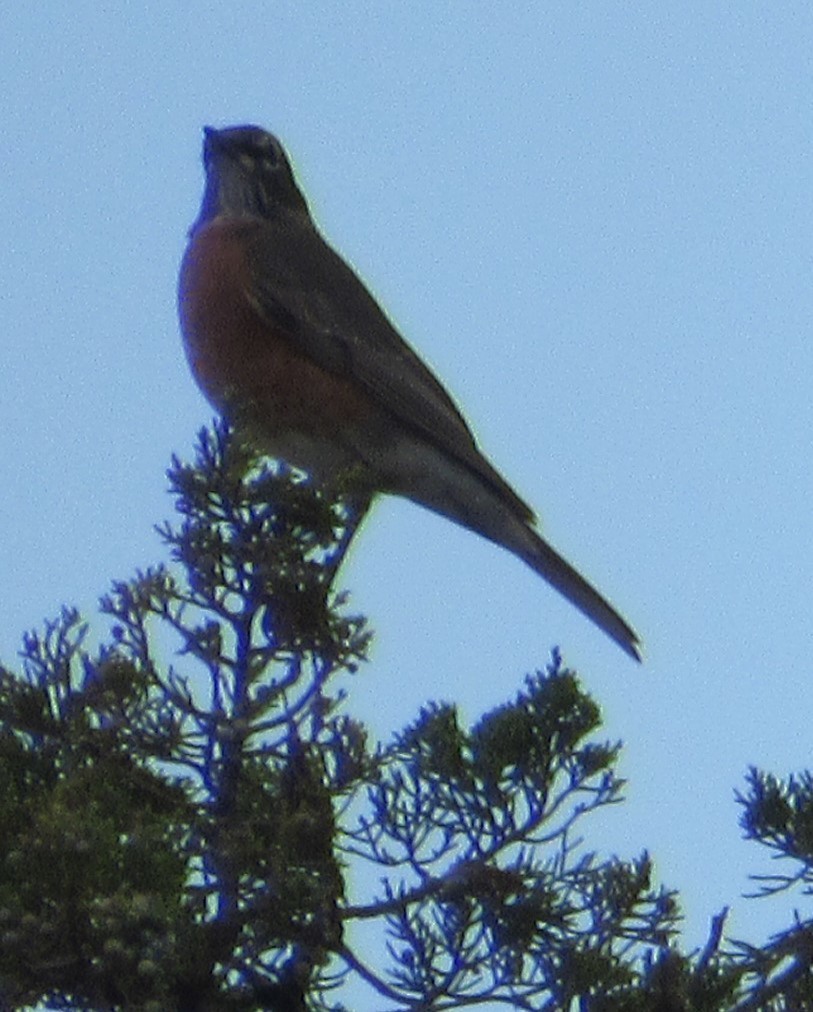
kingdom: Animalia
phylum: Chordata
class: Aves
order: Passeriformes
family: Turdidae
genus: Turdus
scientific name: Turdus migratorius
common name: American robin
